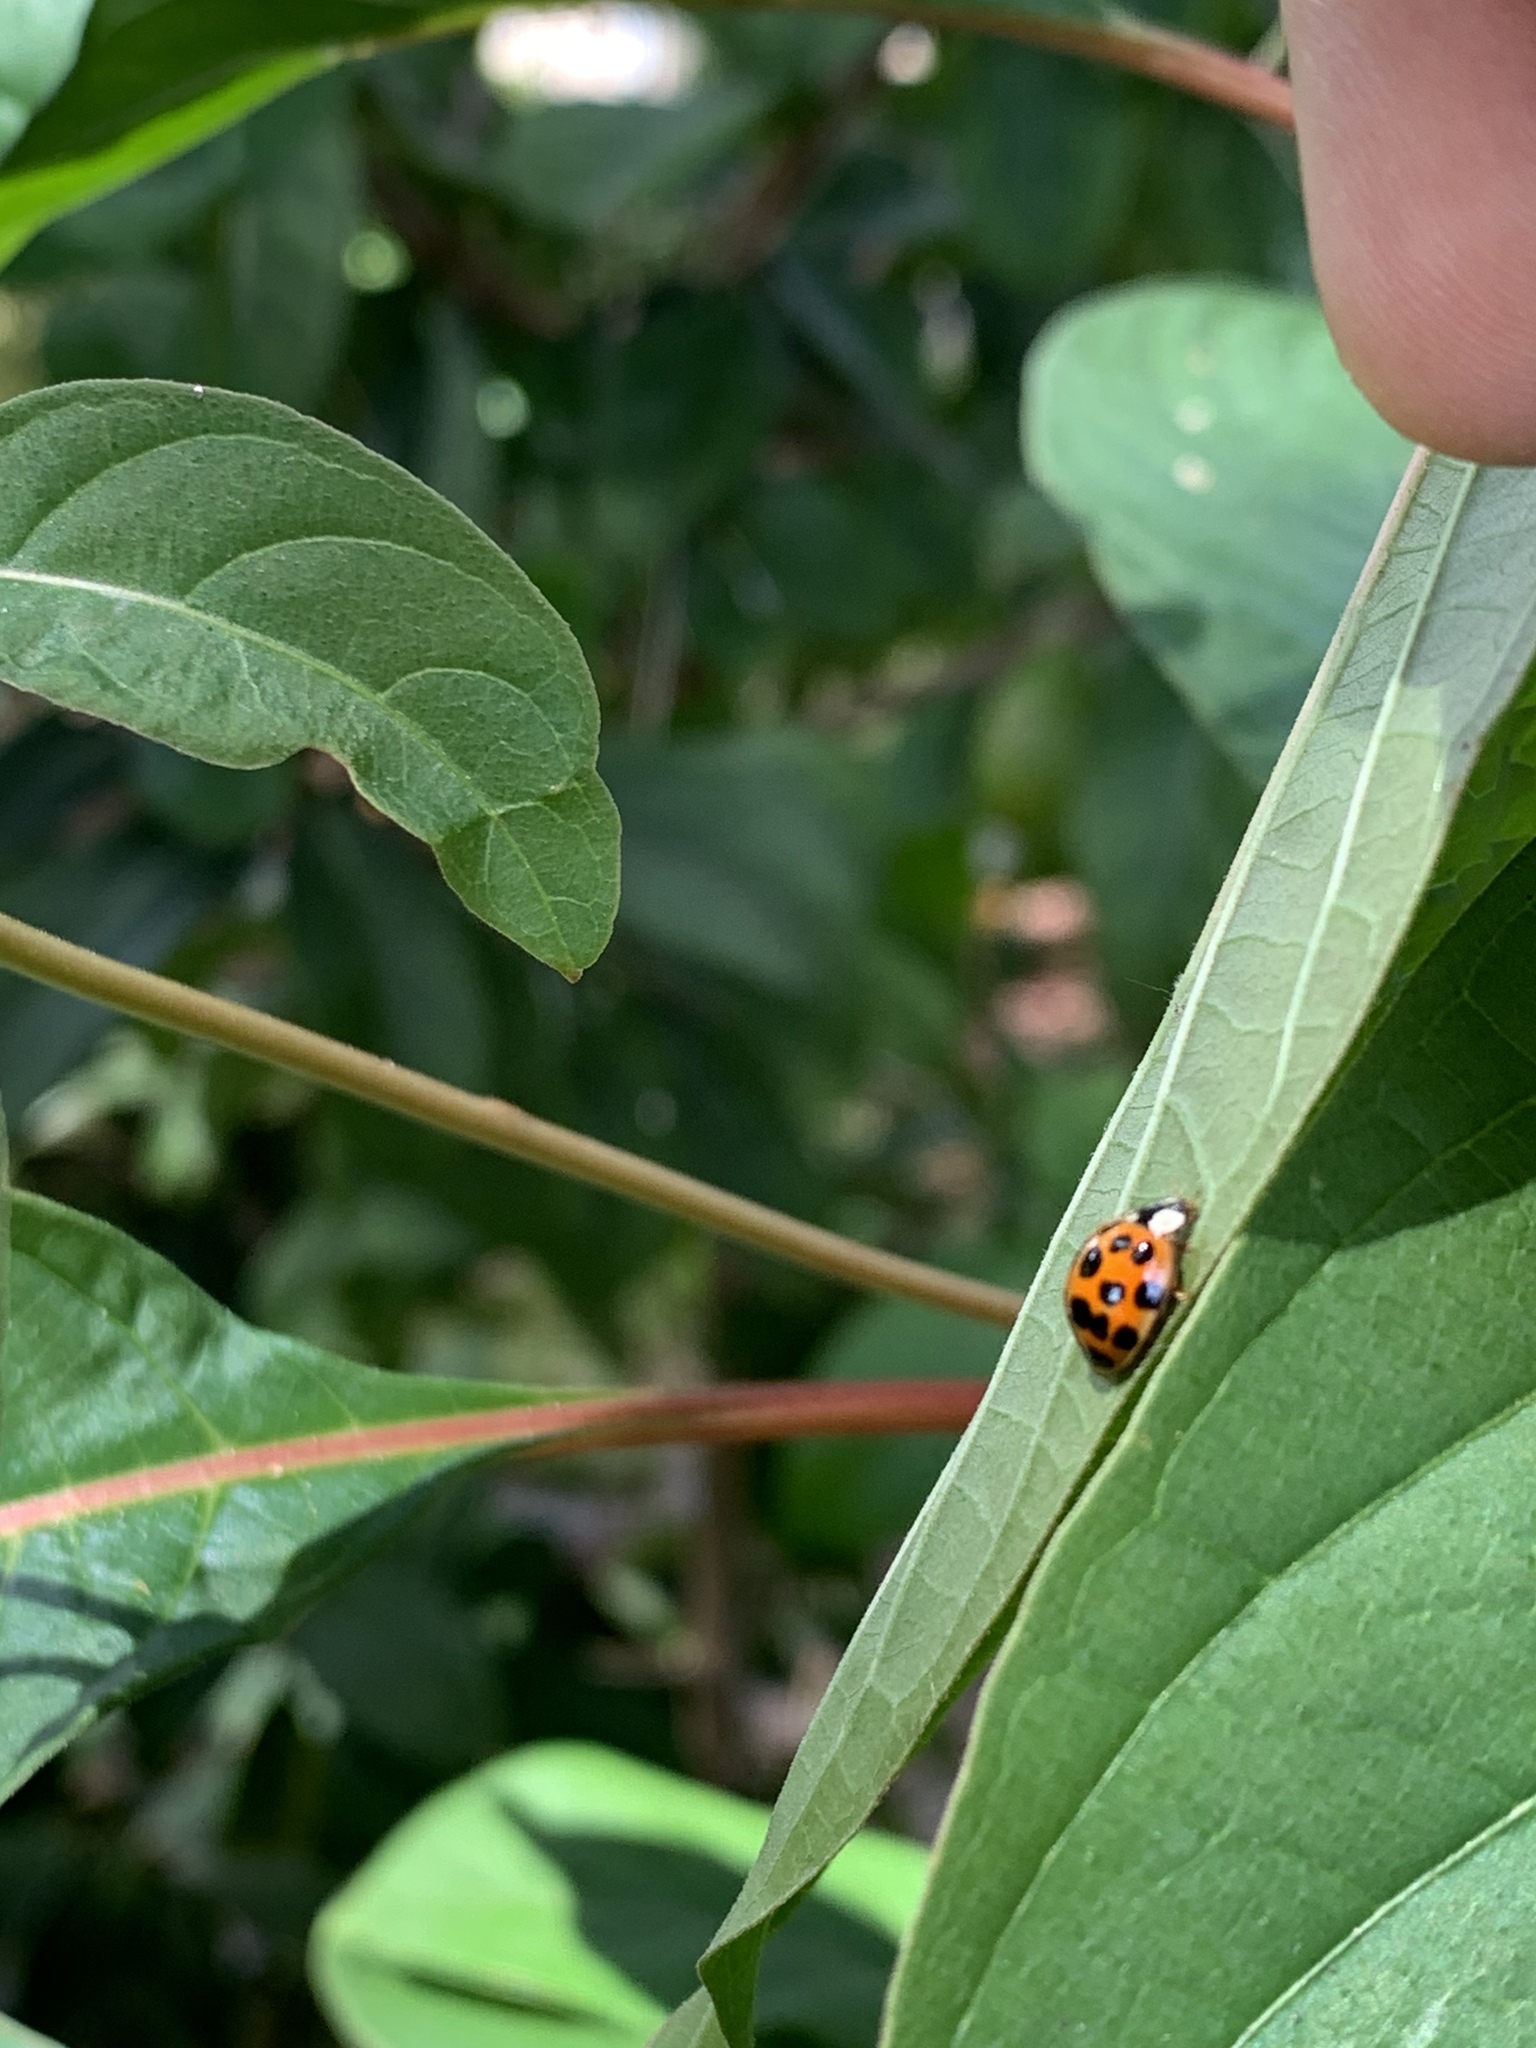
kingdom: Animalia
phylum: Arthropoda
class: Insecta
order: Coleoptera
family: Coccinellidae
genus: Harmonia
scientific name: Harmonia axyridis
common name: Harlequin ladybird
